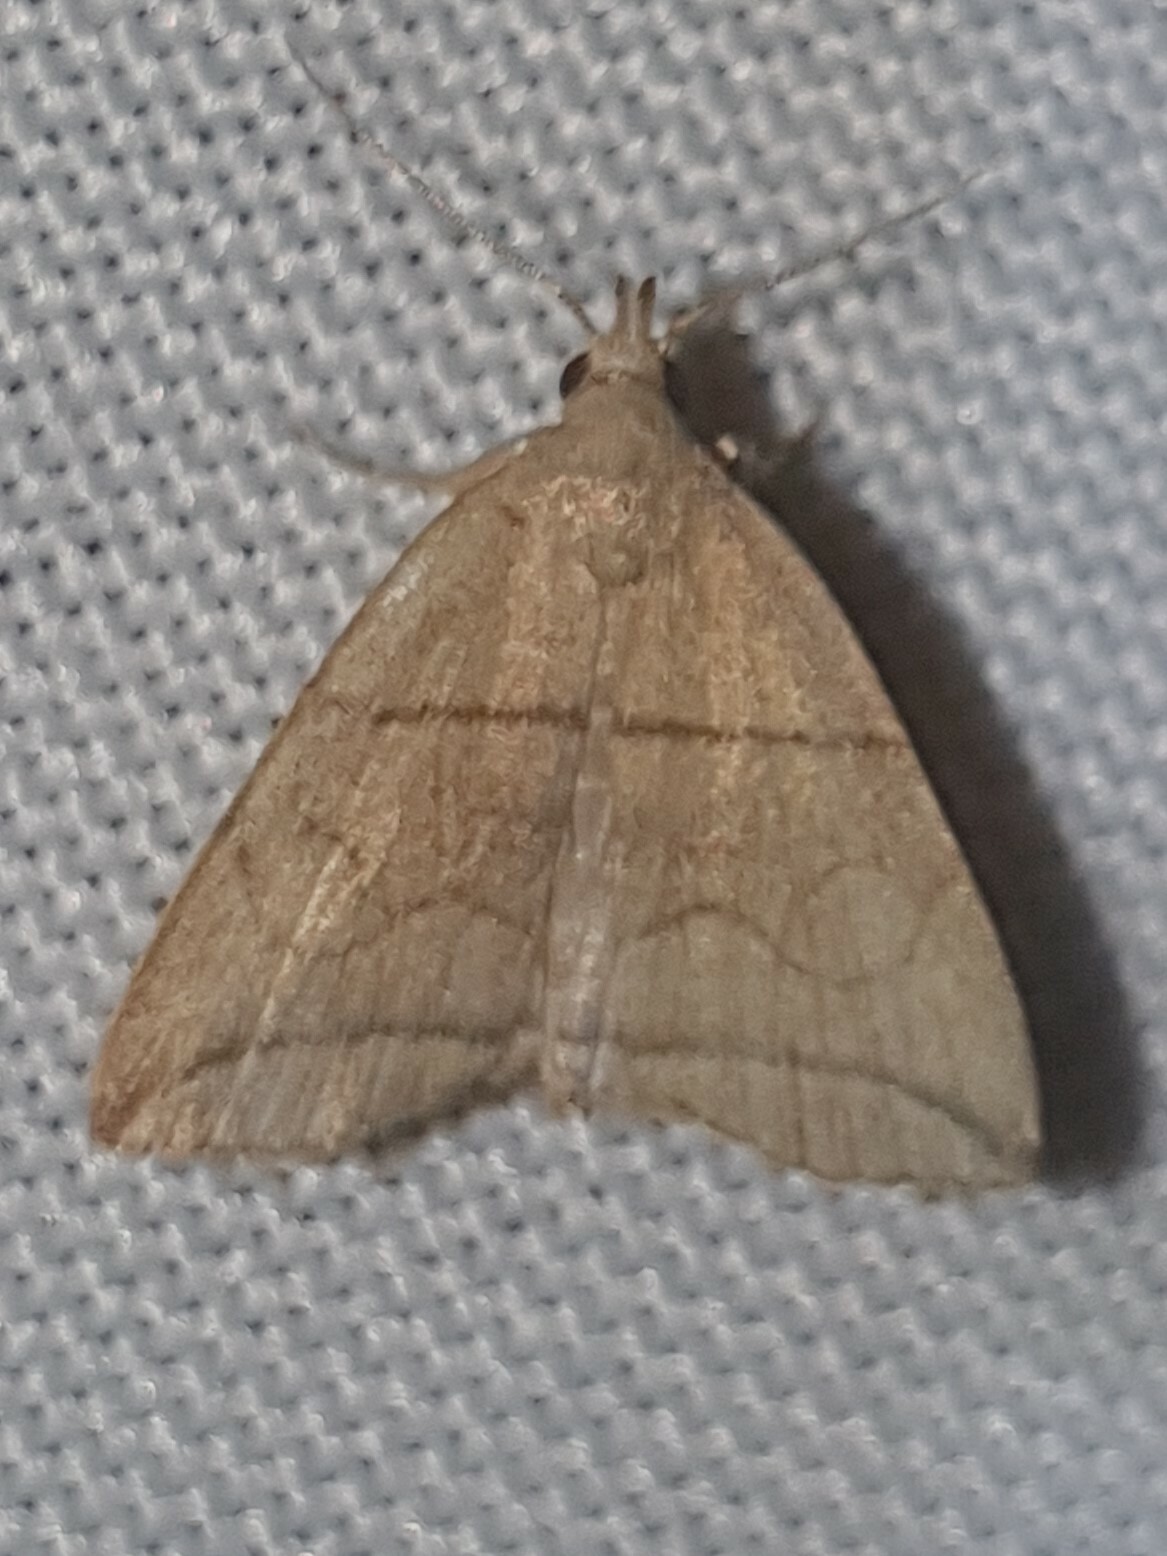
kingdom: Animalia
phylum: Arthropoda
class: Insecta
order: Lepidoptera
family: Erebidae
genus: Herminia
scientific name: Herminia grisealis
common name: Small fan-foot
